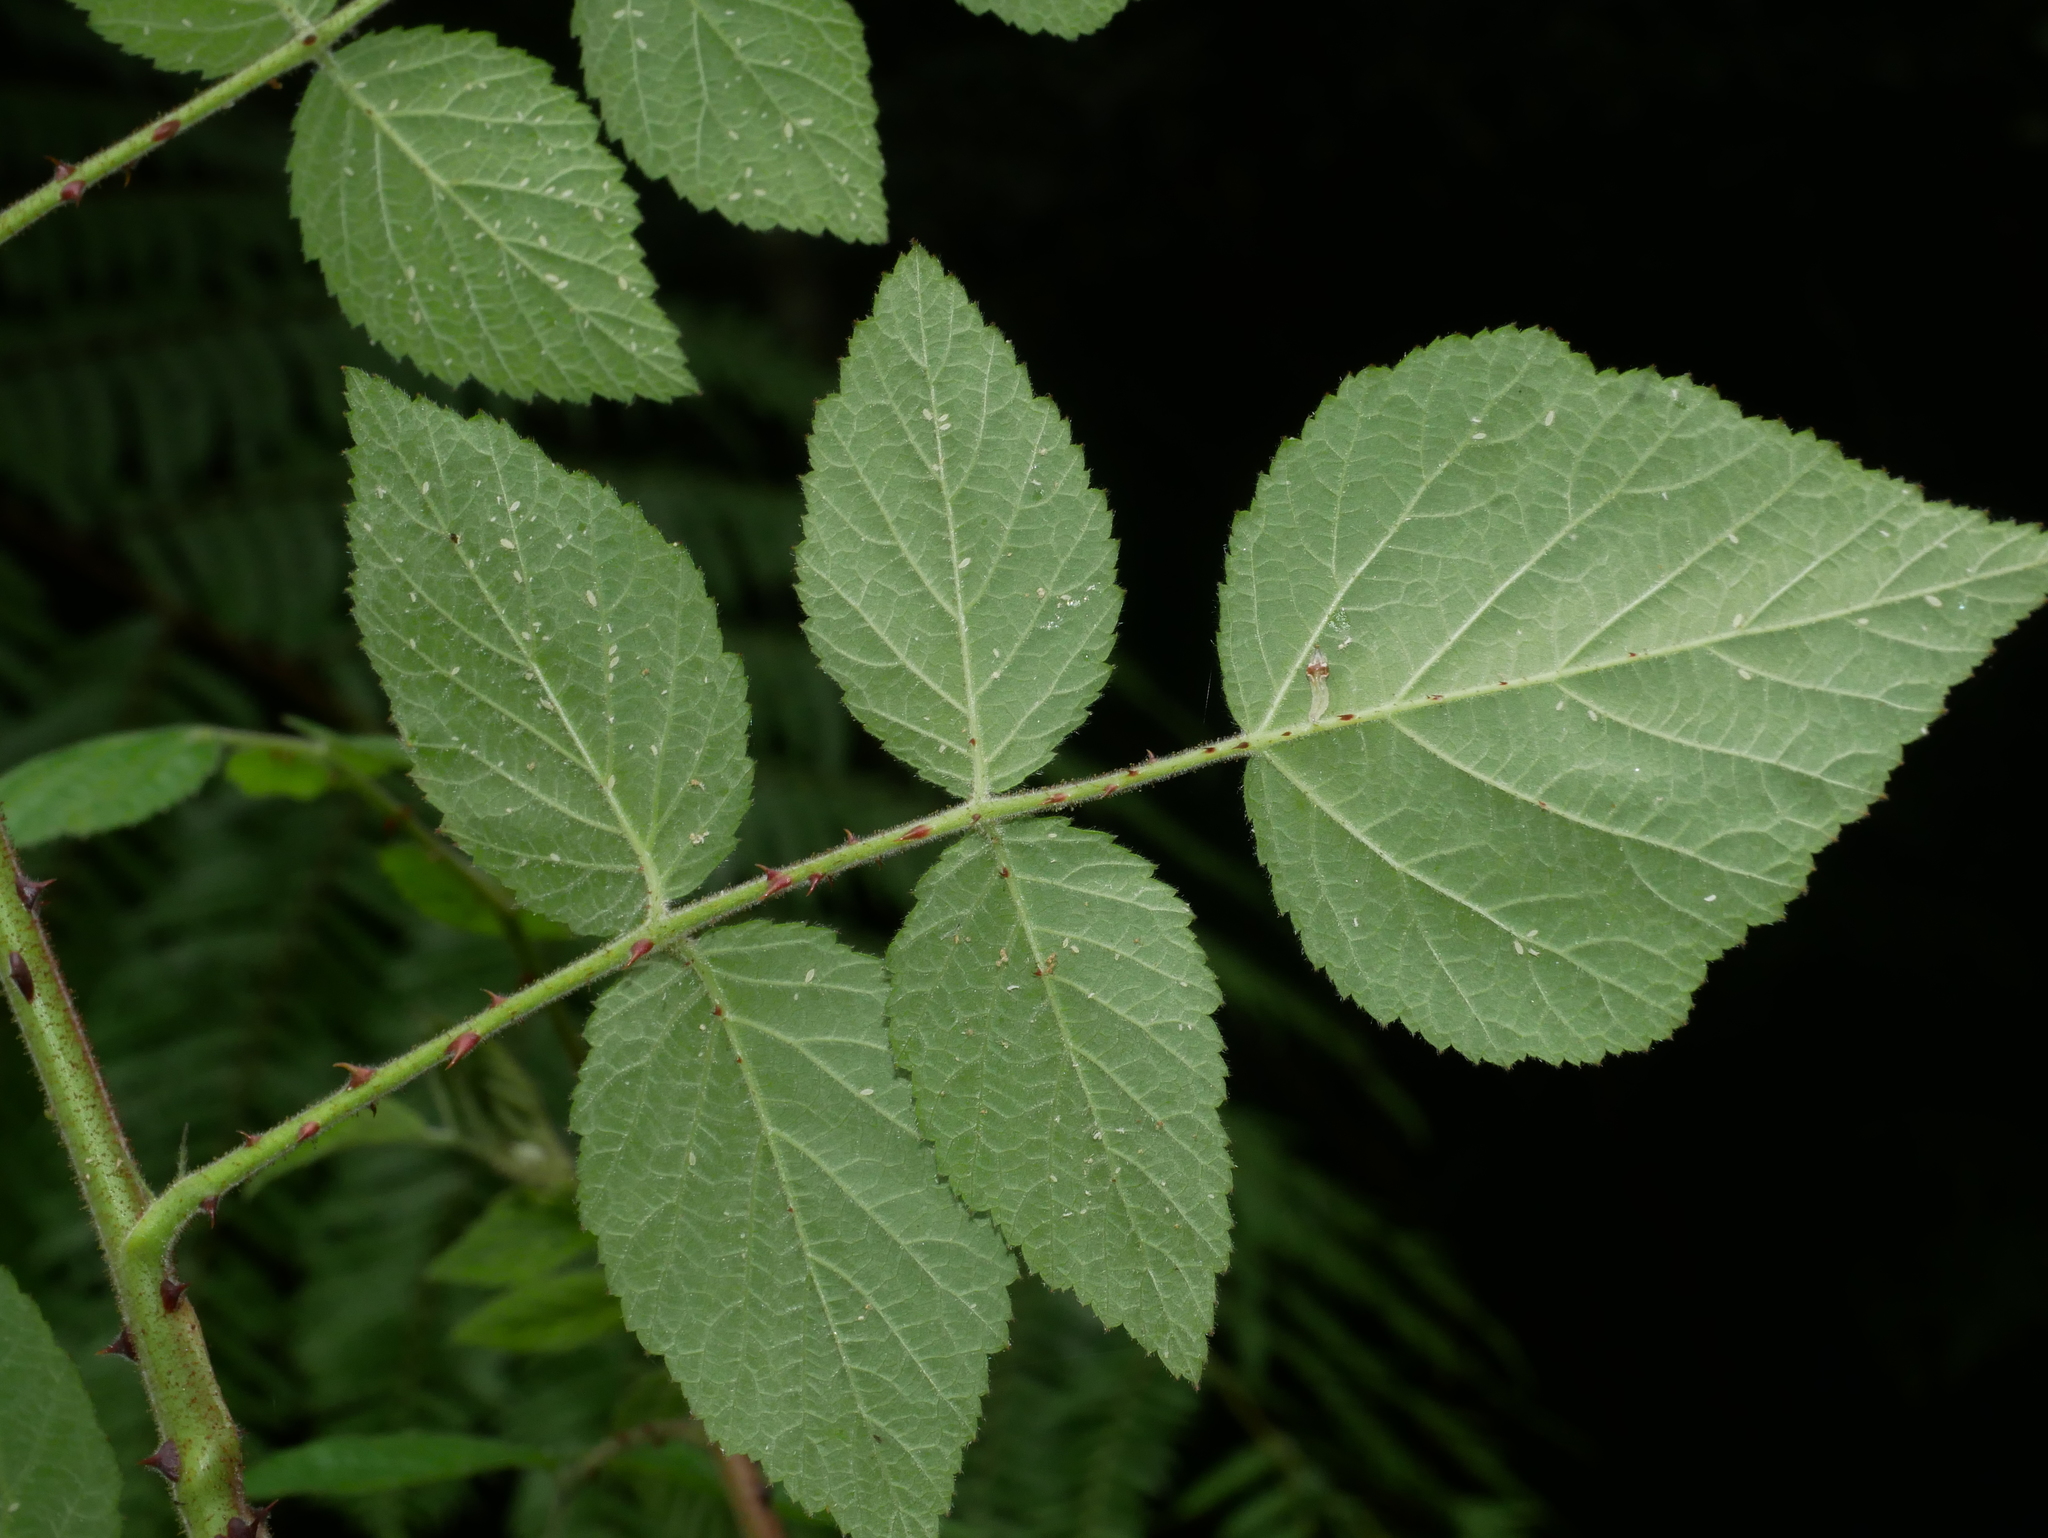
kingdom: Plantae
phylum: Tracheophyta
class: Magnoliopsida
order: Rosales
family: Rosaceae
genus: Rubus
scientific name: Rubus parviaraliifolius
